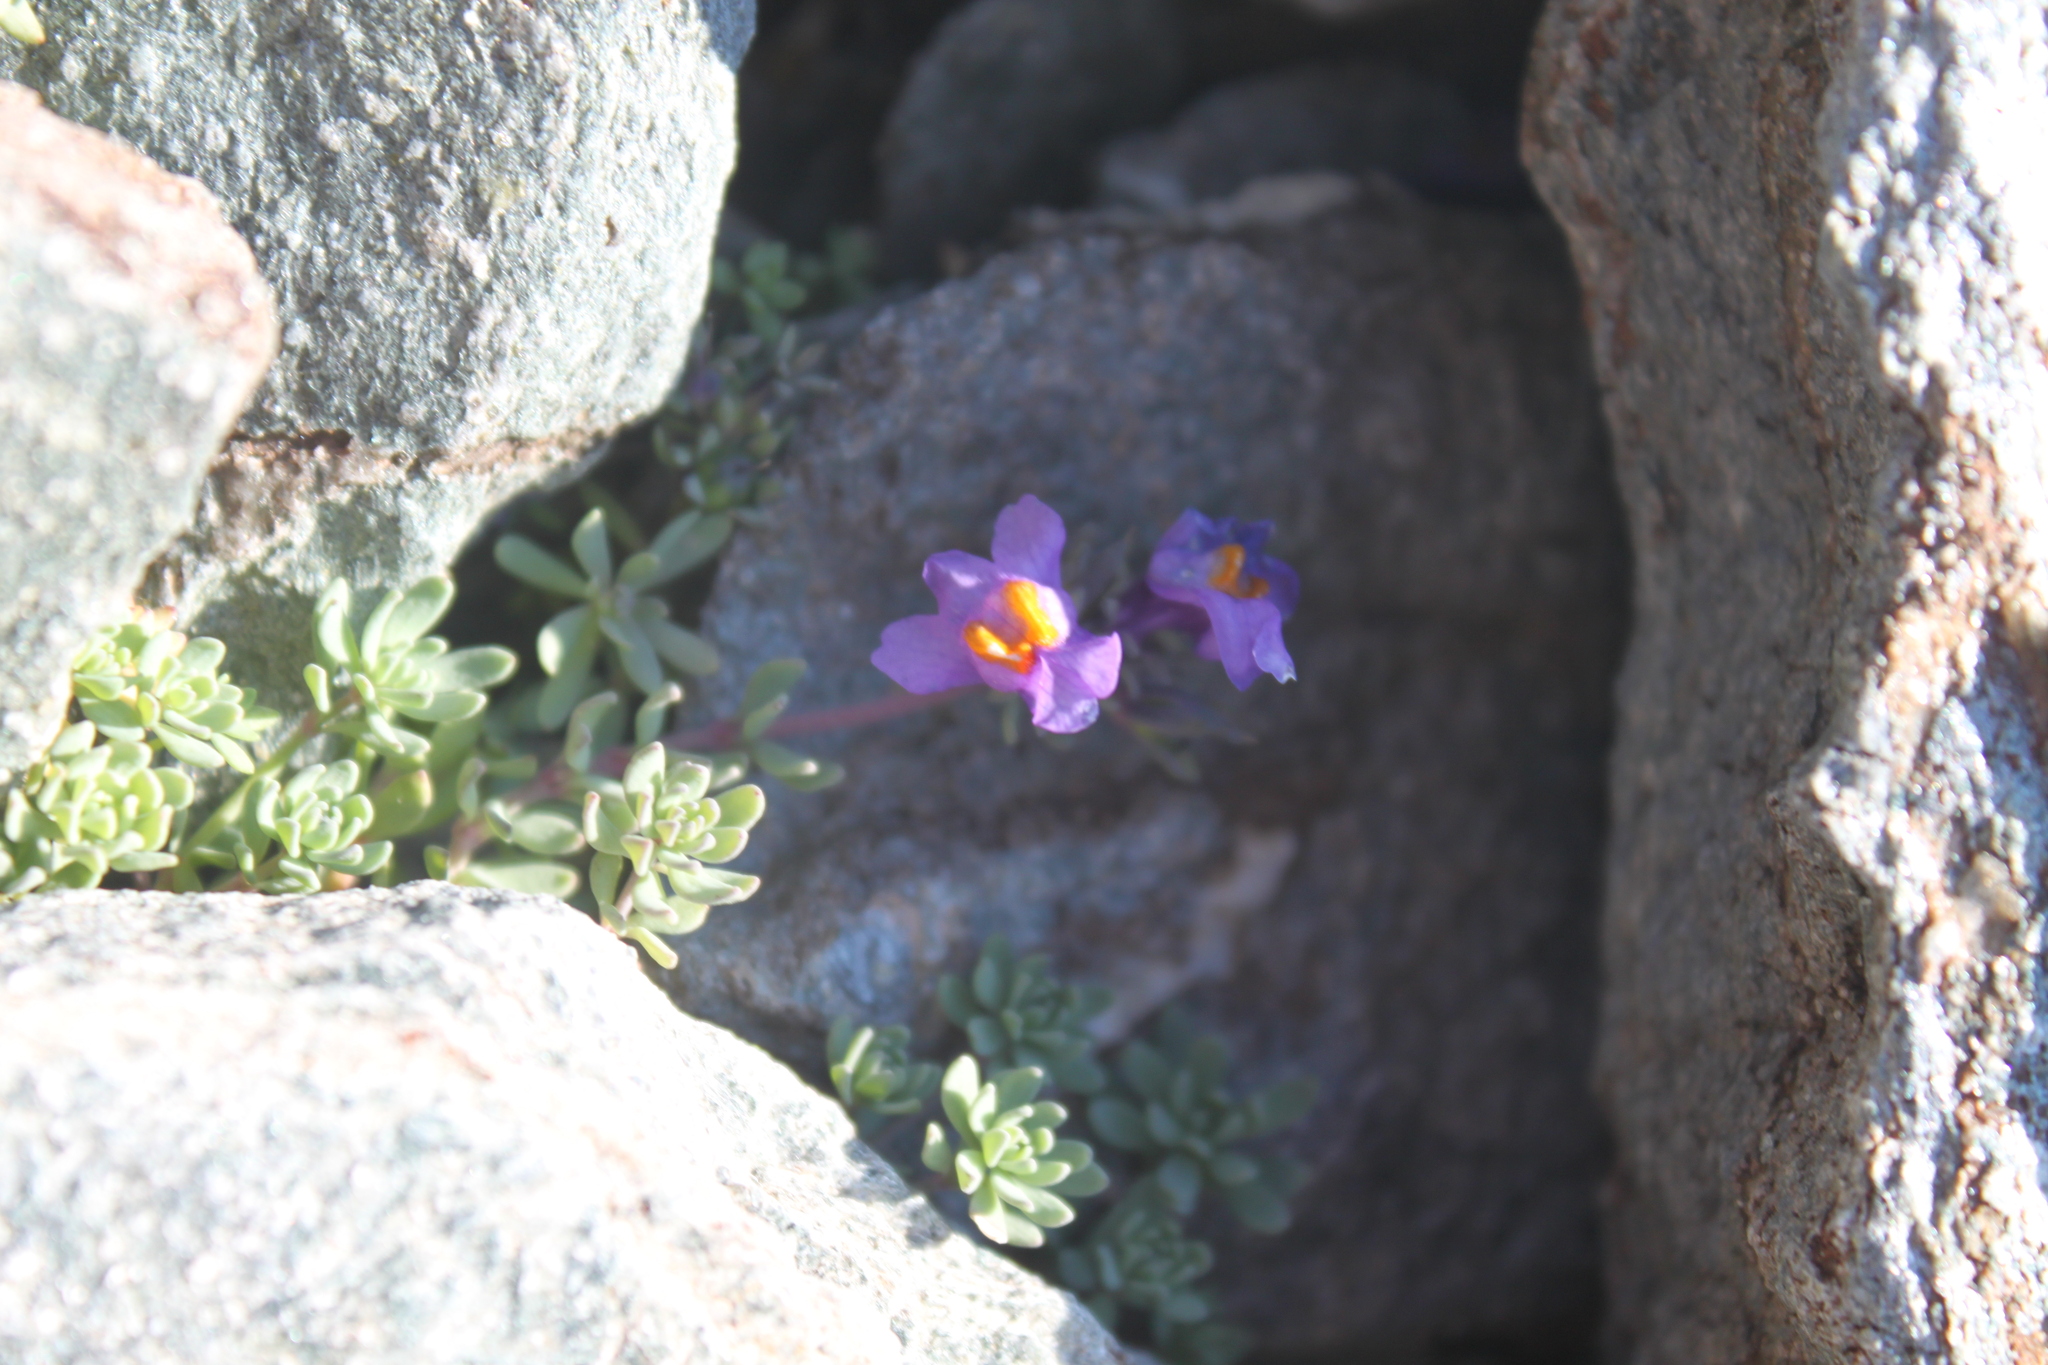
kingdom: Plantae
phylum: Tracheophyta
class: Magnoliopsida
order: Lamiales
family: Plantaginaceae
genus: Linaria
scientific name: Linaria alpina
